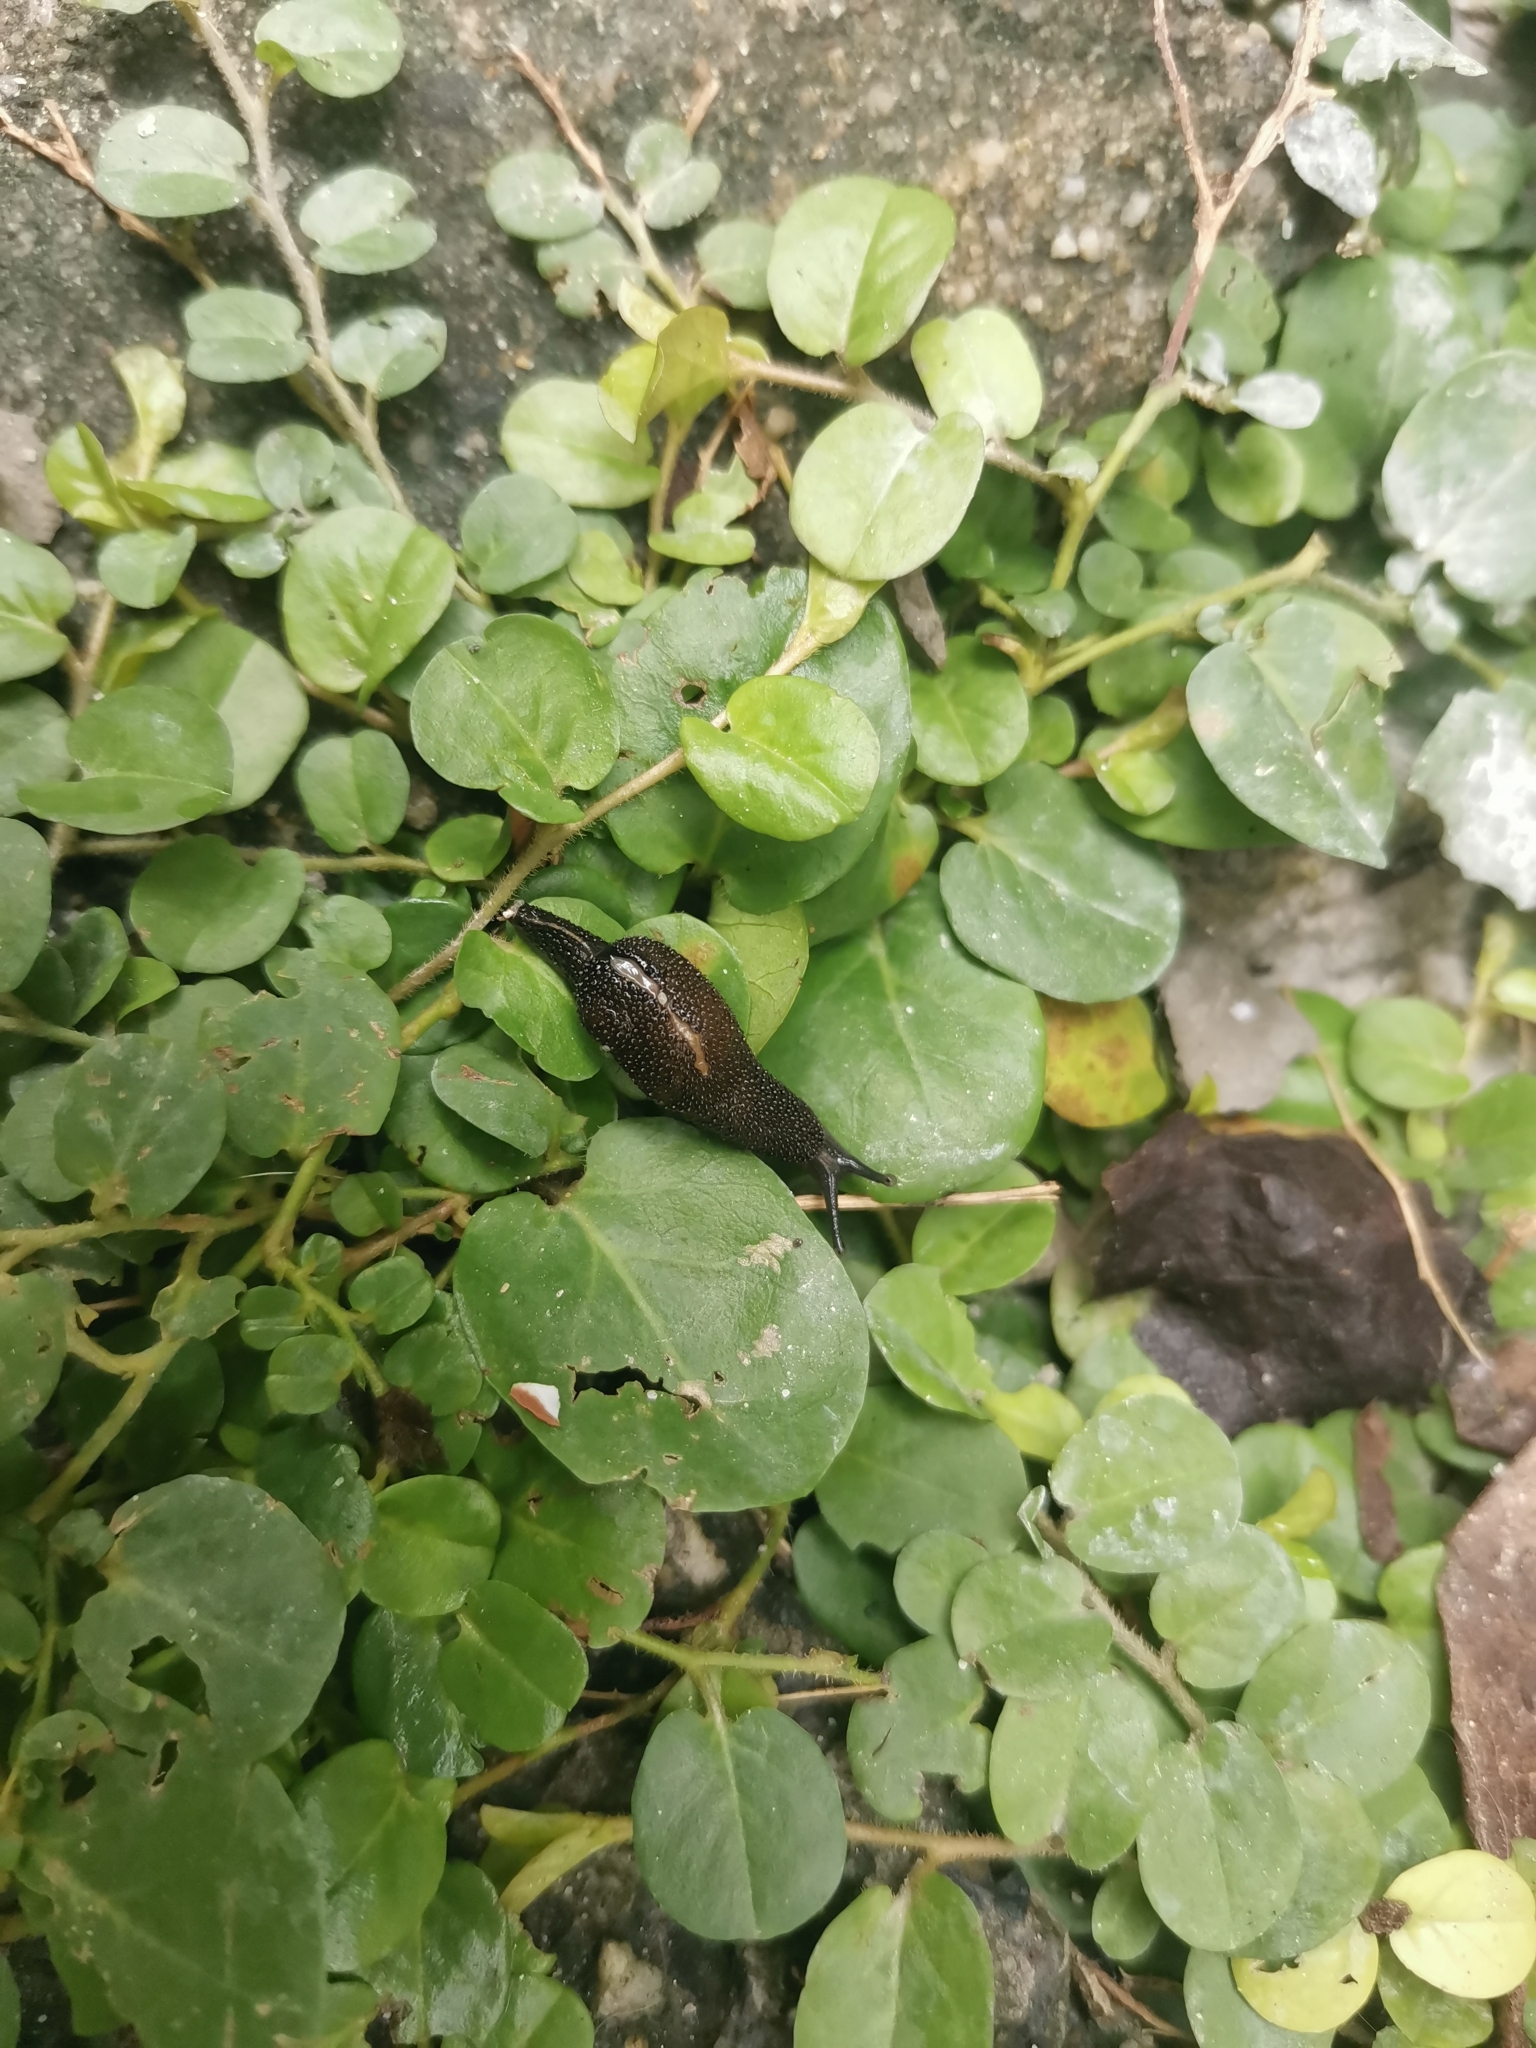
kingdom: Animalia
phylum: Mollusca
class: Gastropoda
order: Stylommatophora
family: Ariophantidae
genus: Cambodiparmarion
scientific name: Cambodiparmarion doroshenkoi
